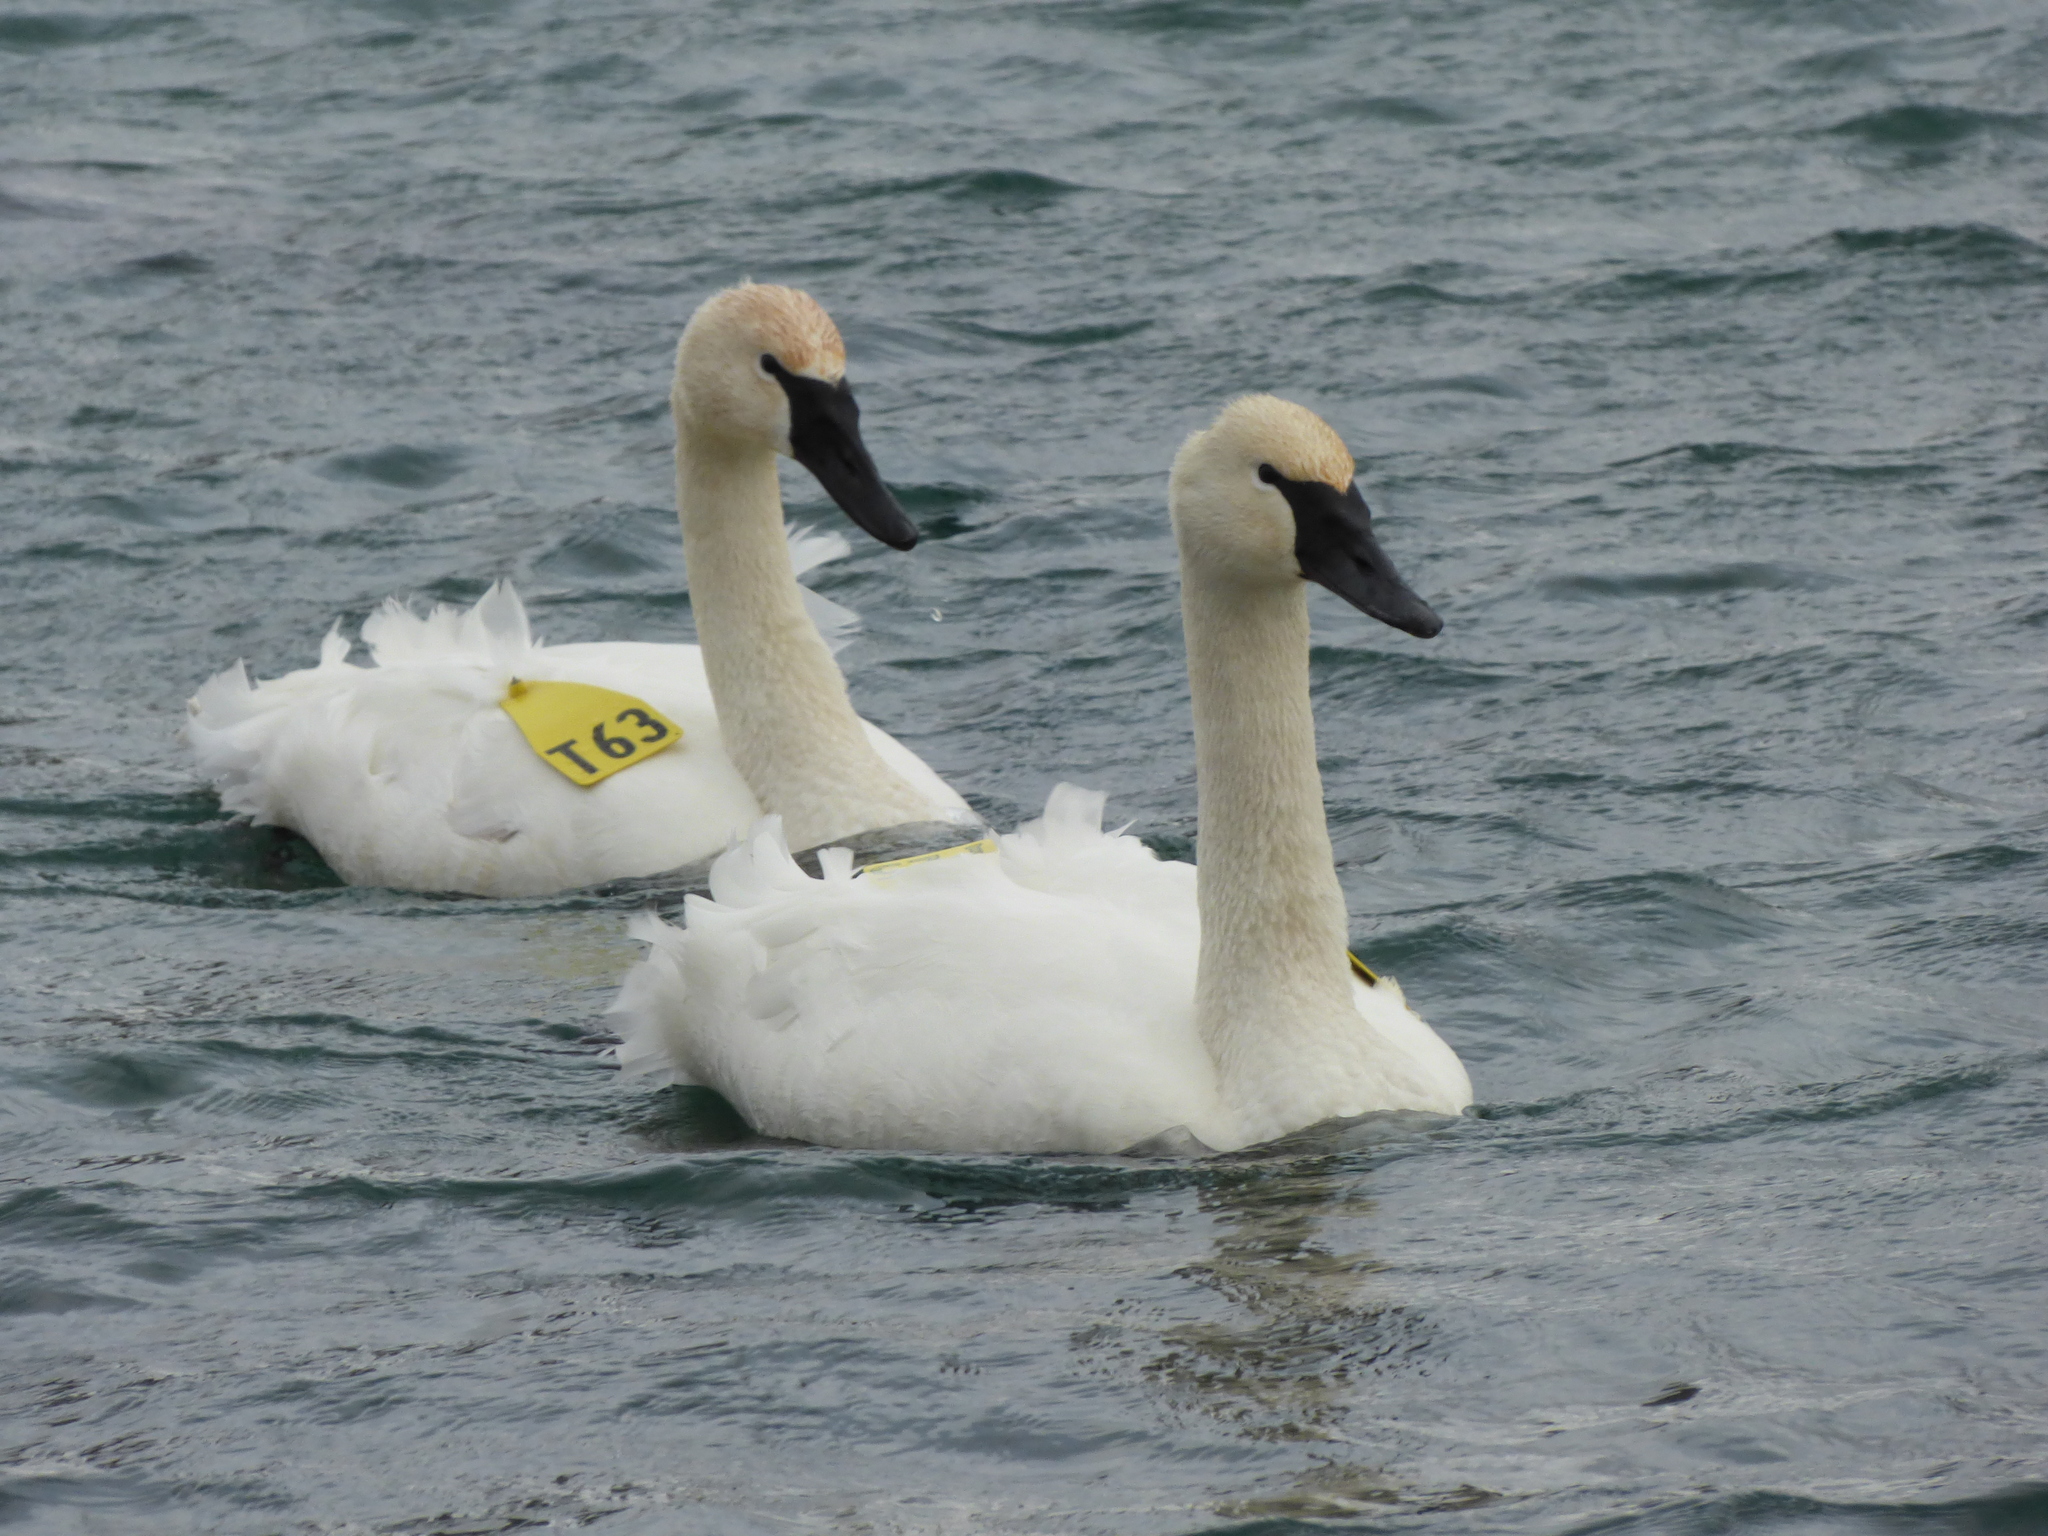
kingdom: Animalia
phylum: Chordata
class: Aves
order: Anseriformes
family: Anatidae
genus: Cygnus
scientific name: Cygnus buccinator
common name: Trumpeter swan
